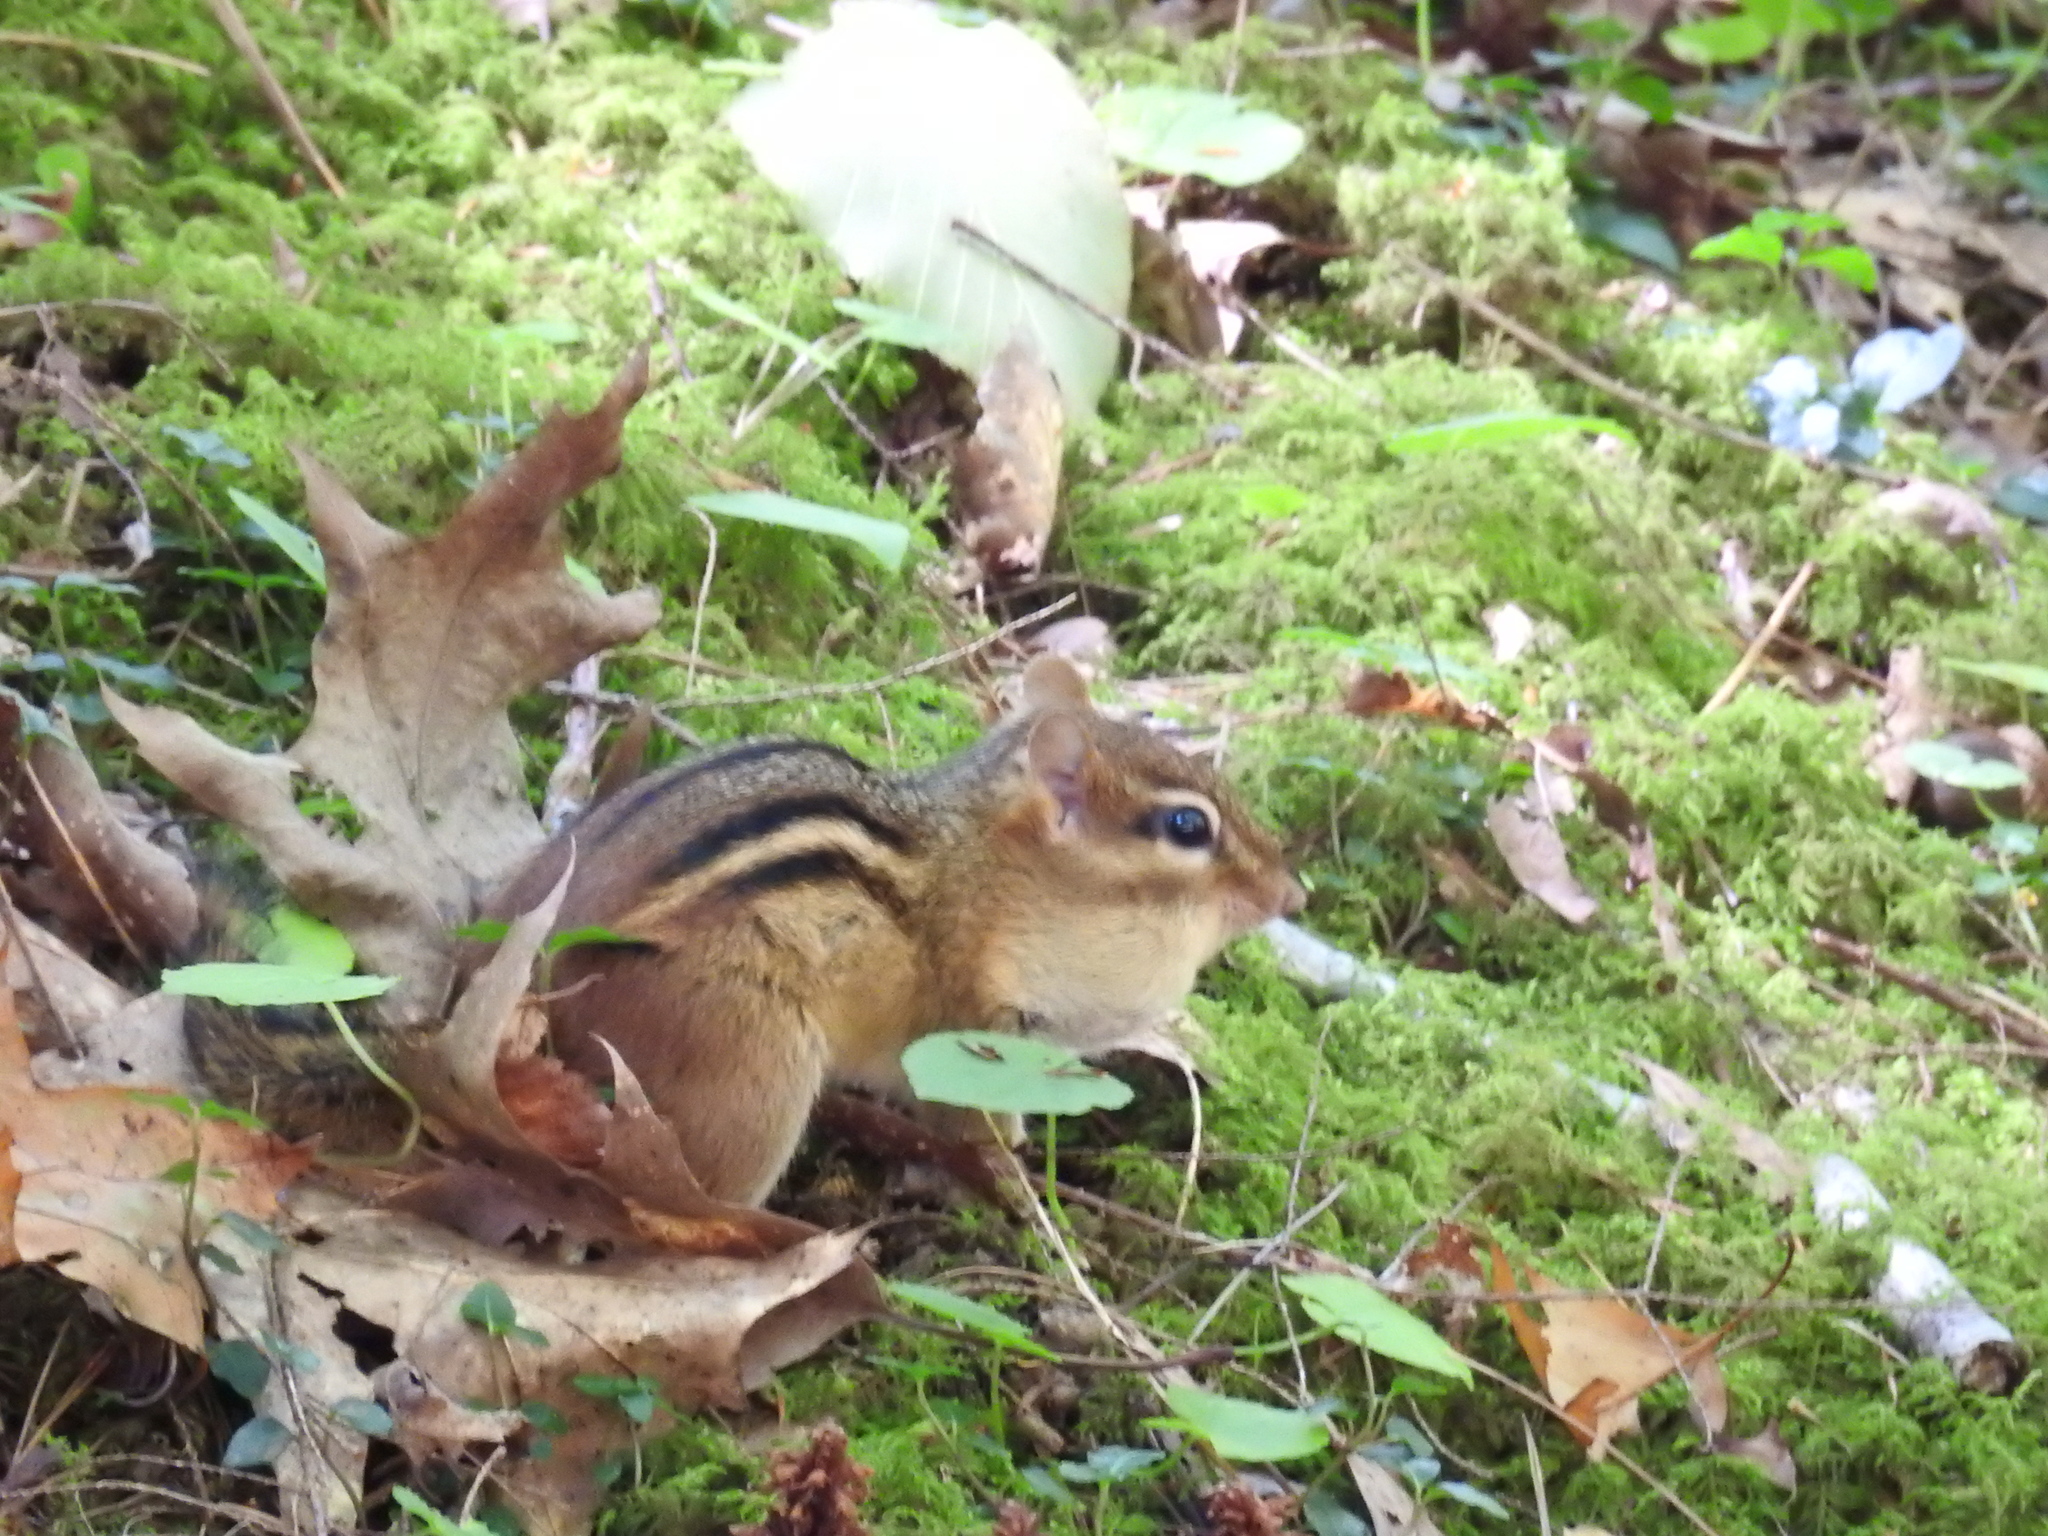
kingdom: Animalia
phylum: Chordata
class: Mammalia
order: Rodentia
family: Sciuridae
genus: Tamias
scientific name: Tamias striatus
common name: Eastern chipmunk
